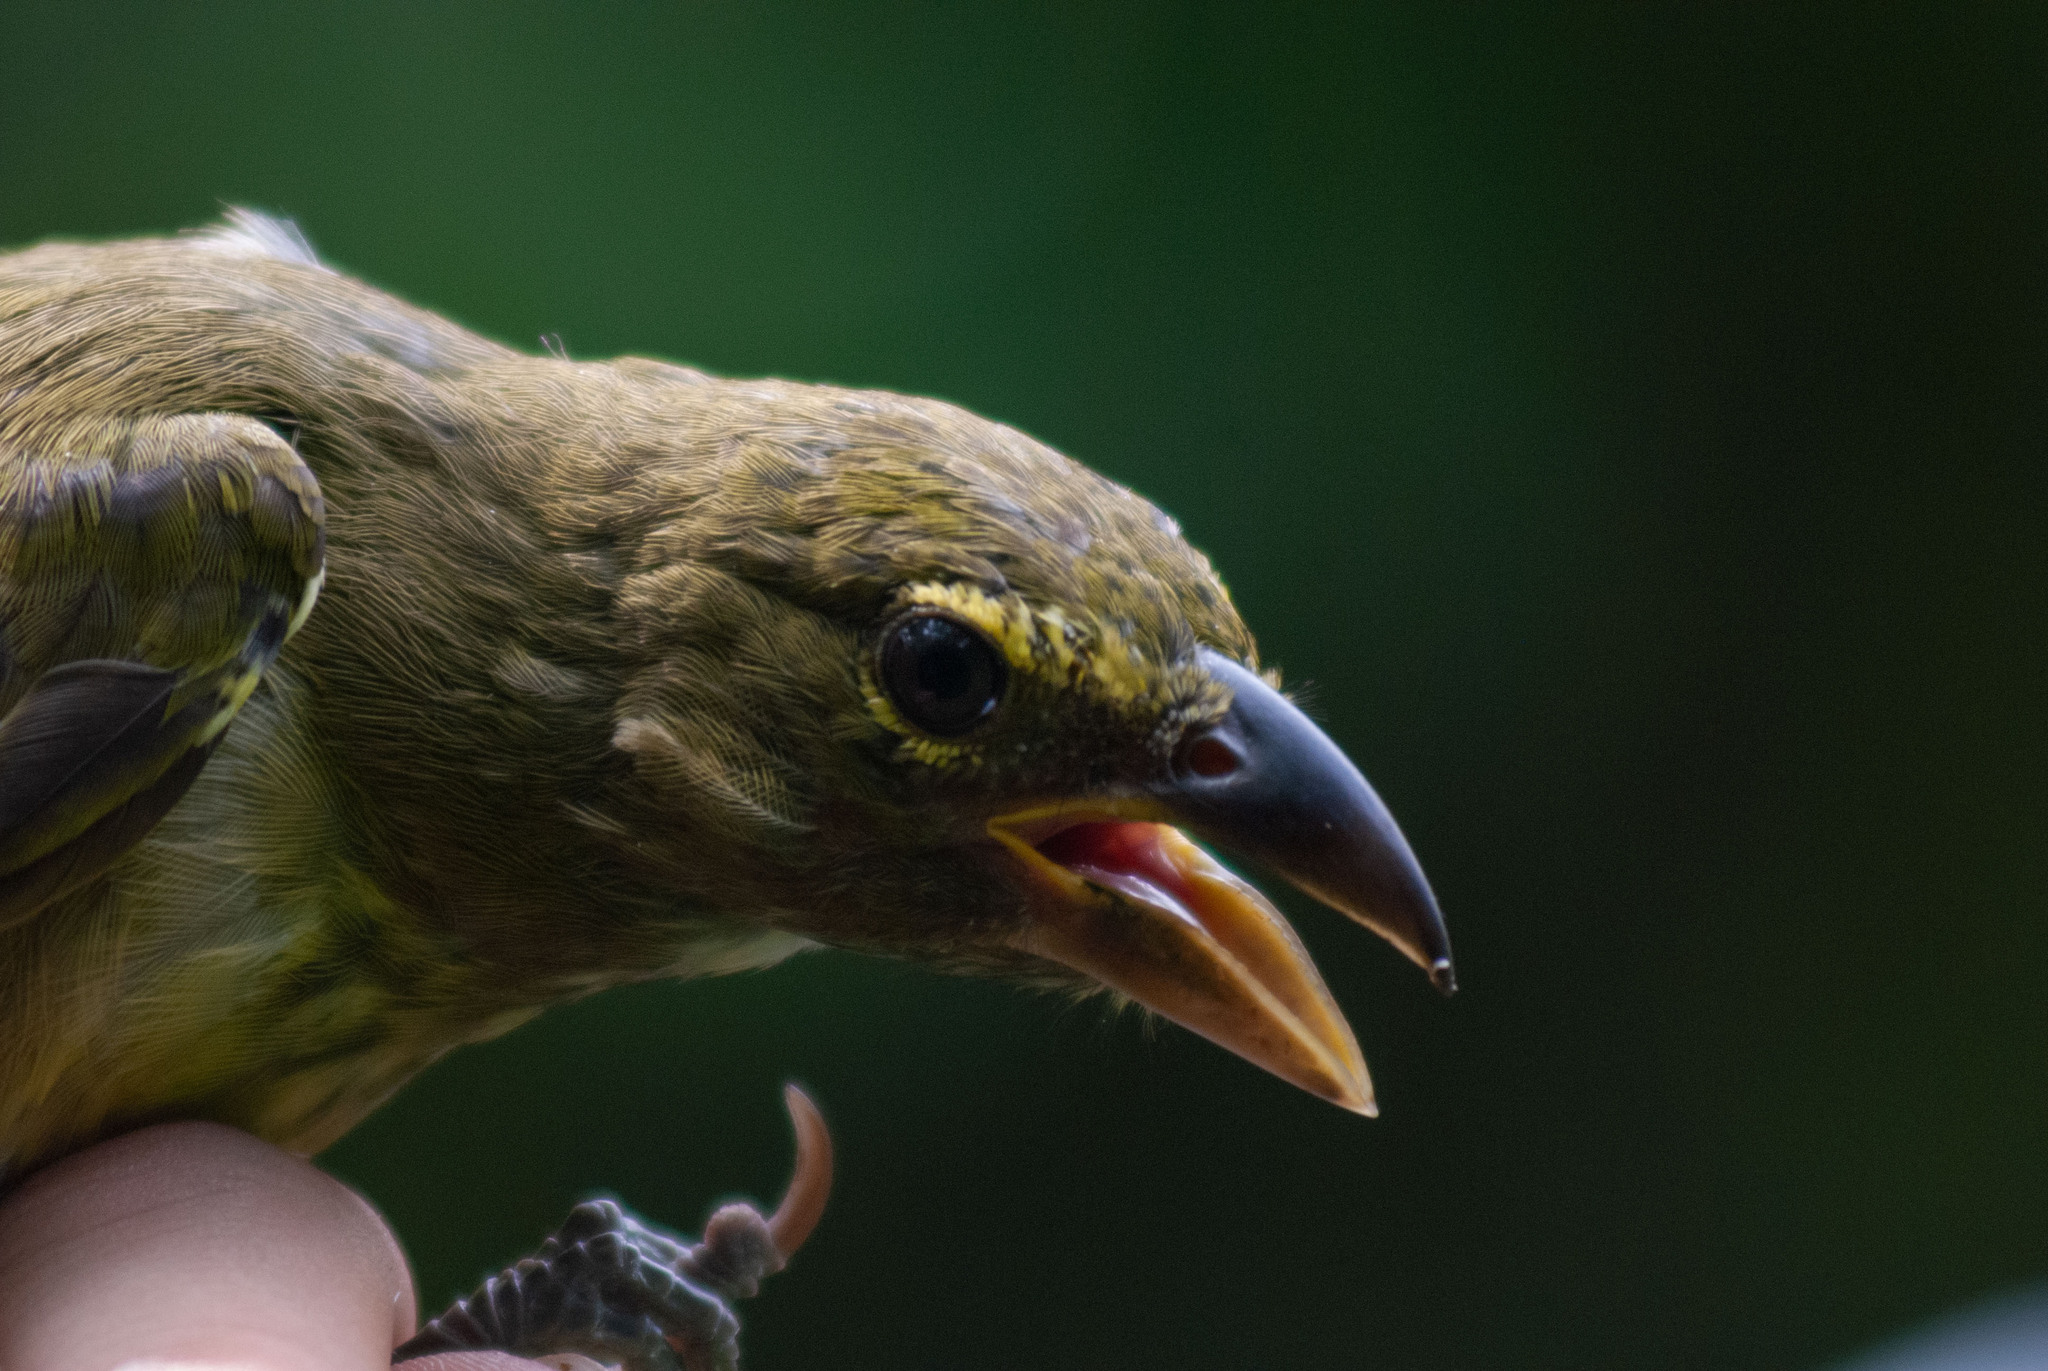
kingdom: Animalia
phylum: Chordata
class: Aves
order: Passeriformes
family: Thraupidae
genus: Saltator
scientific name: Saltator striatipectus
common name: Streaked saltator
